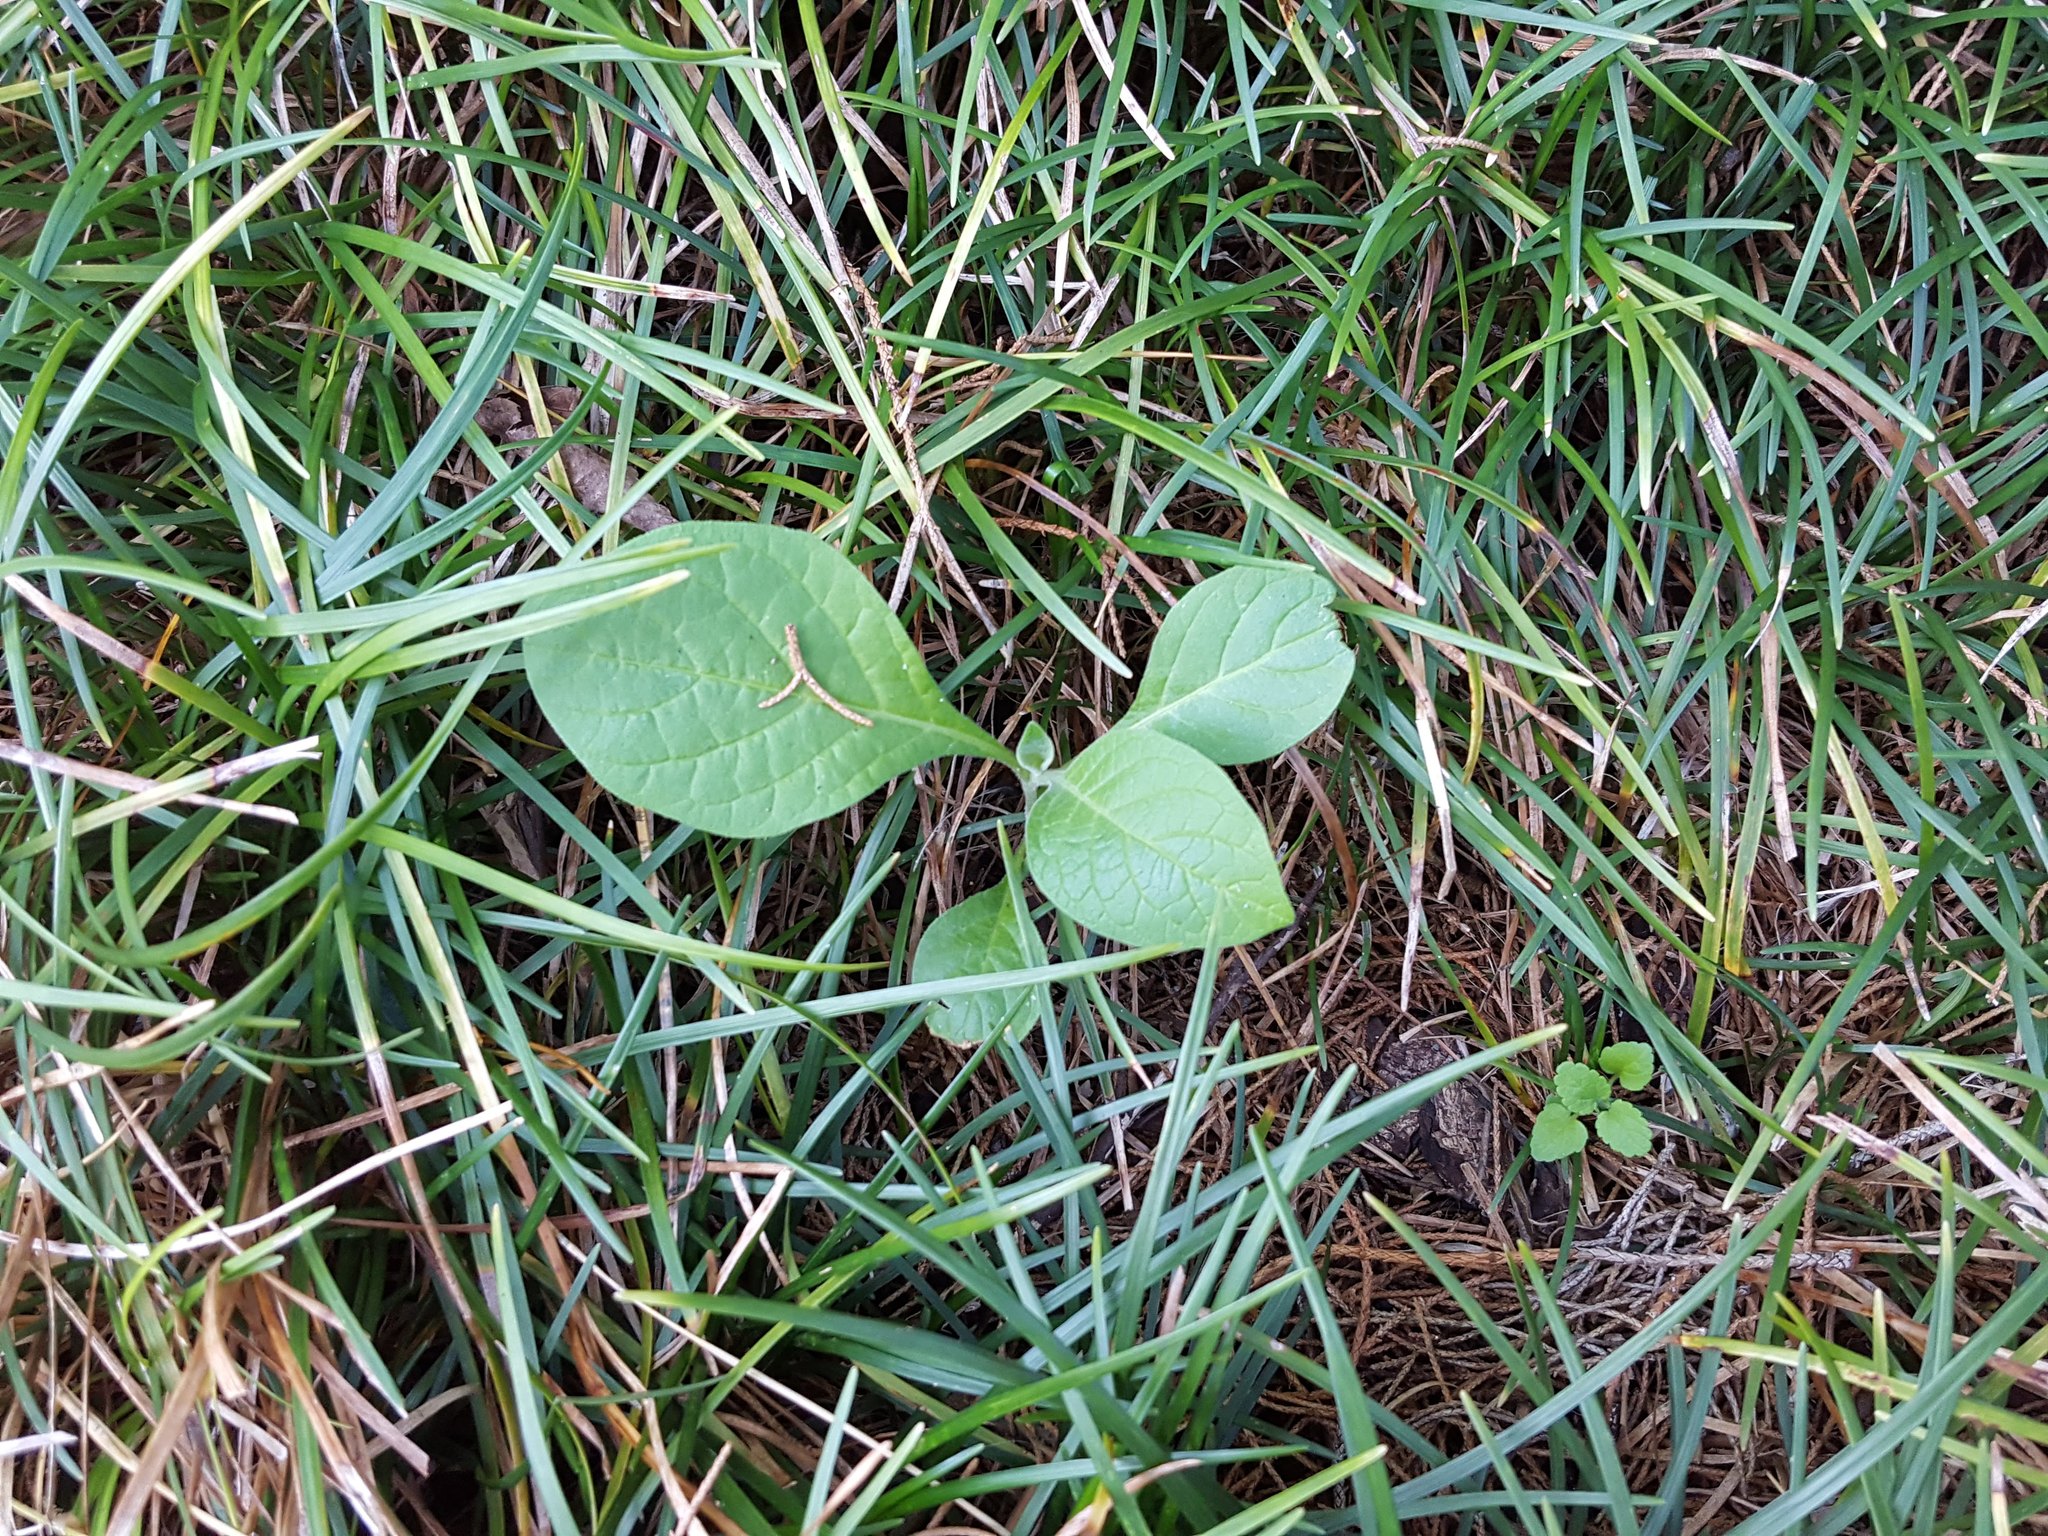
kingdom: Plantae
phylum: Tracheophyta
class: Magnoliopsida
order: Solanales
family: Solanaceae
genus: Solanum
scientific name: Solanum mauritianum
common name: Earleaf nightshade
